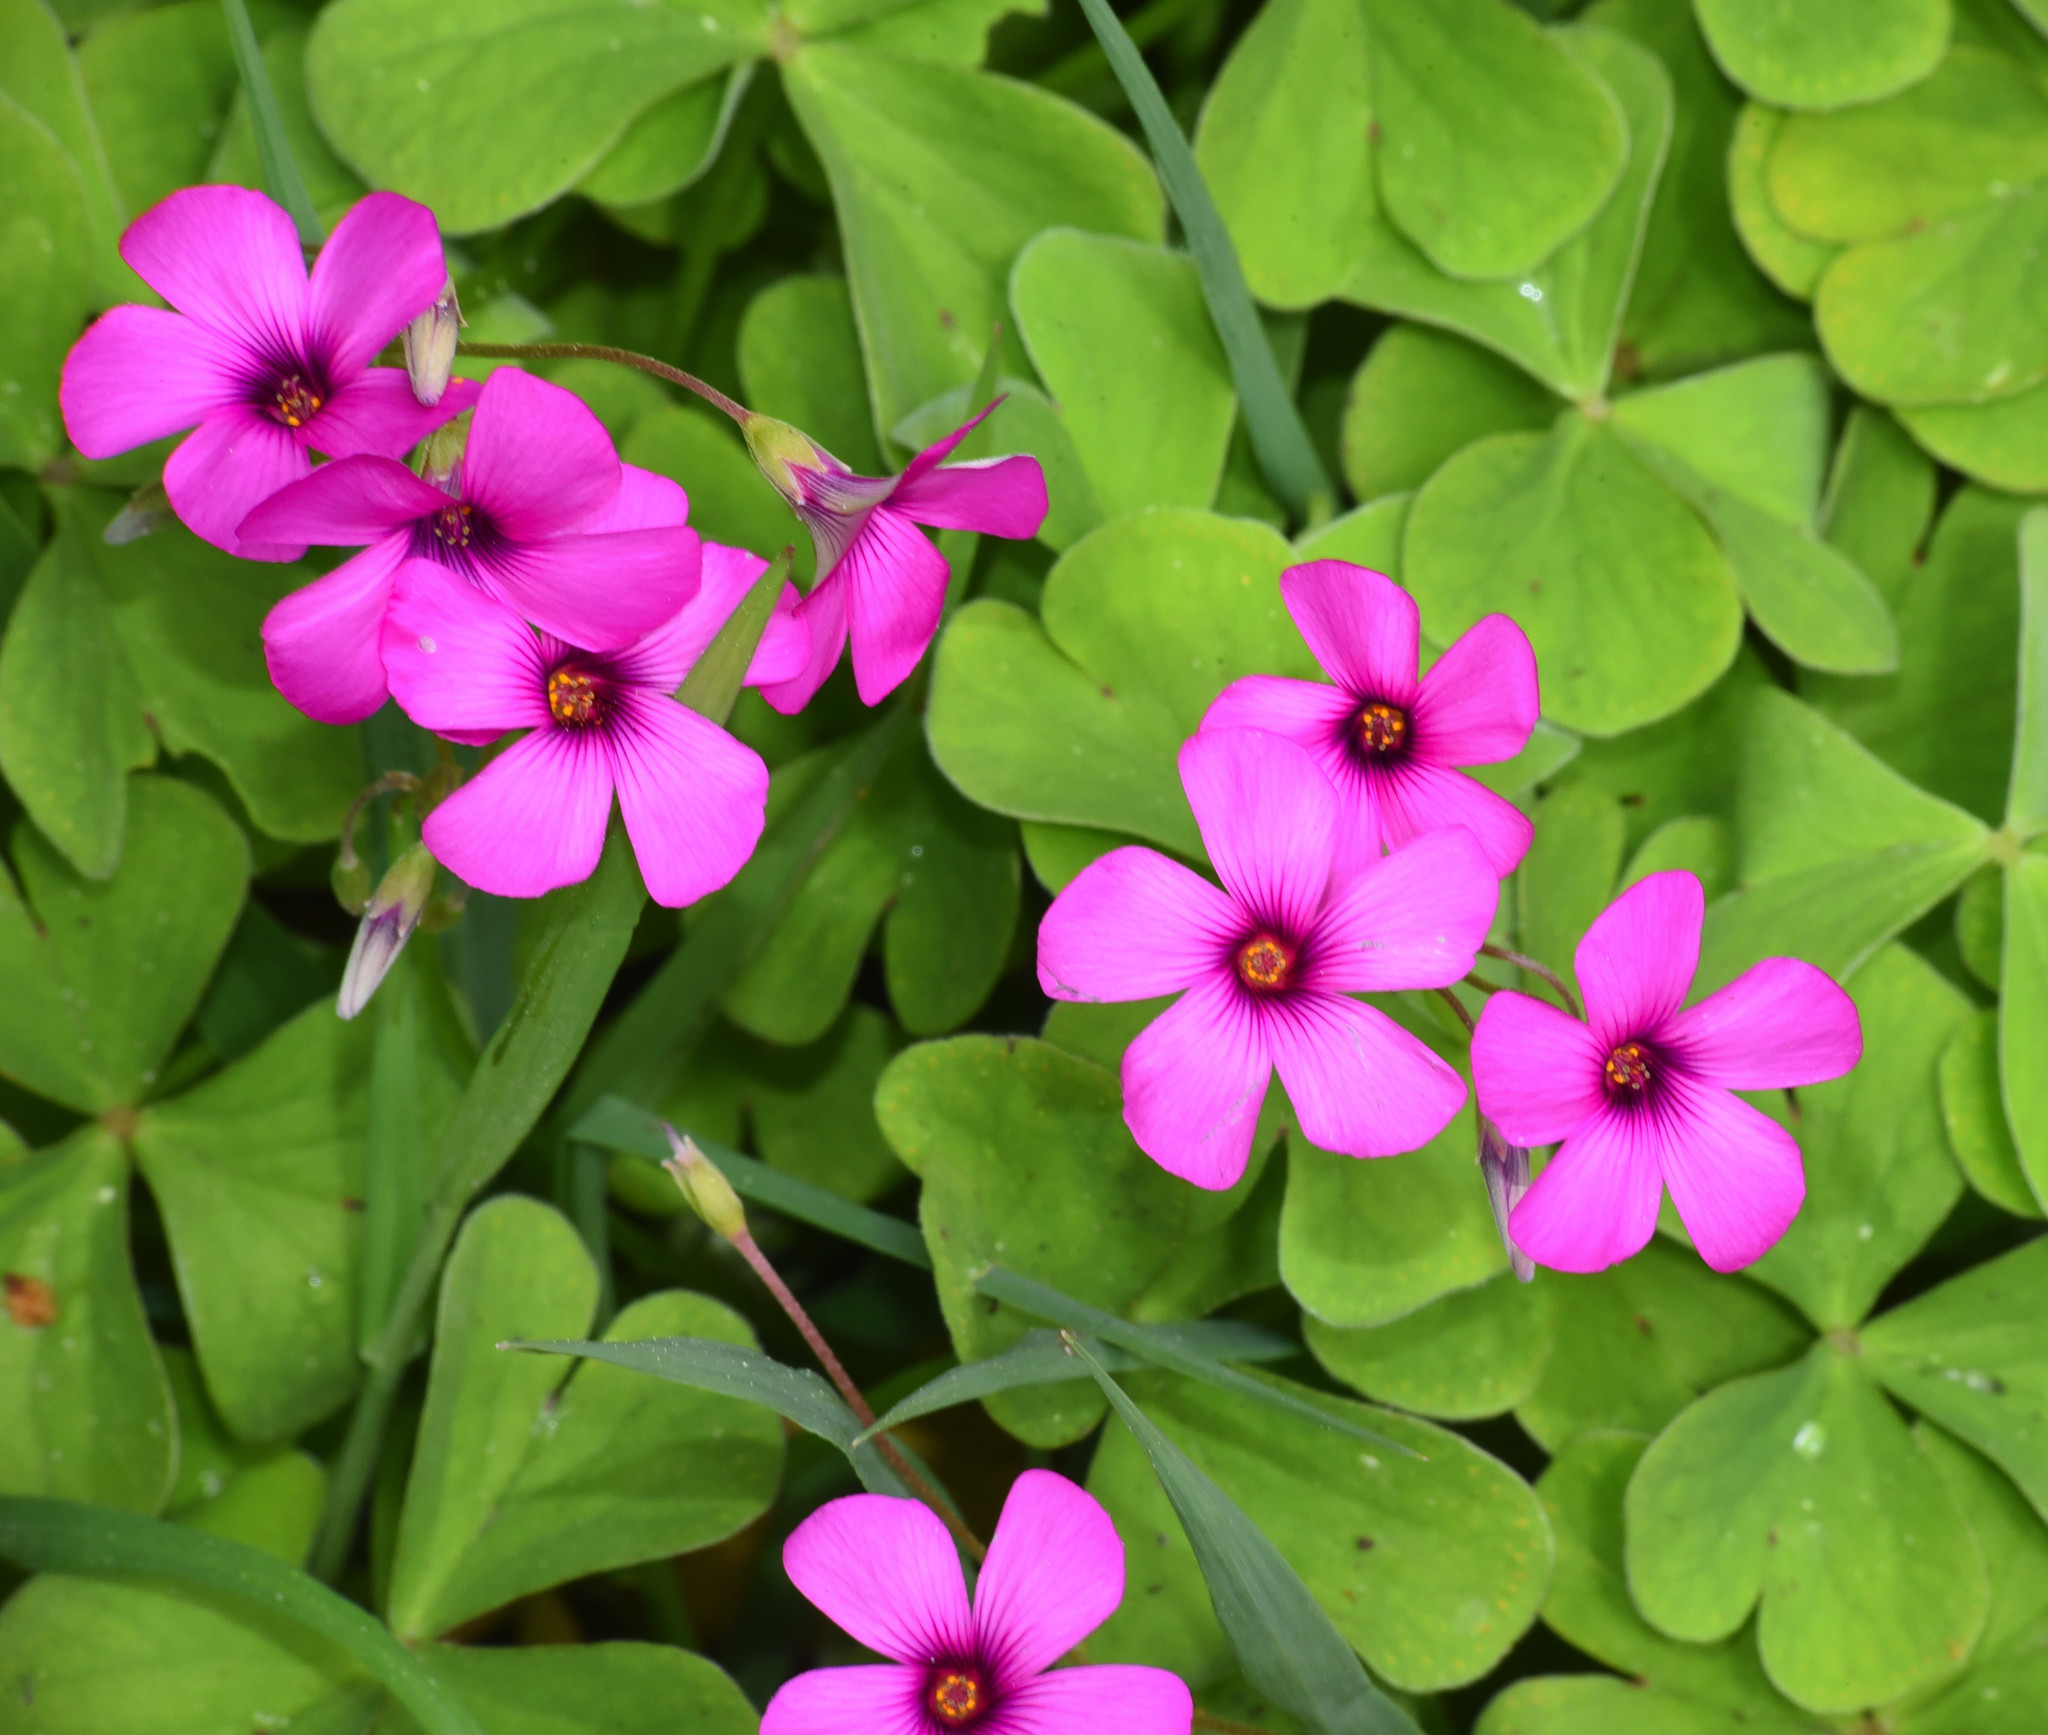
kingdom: Plantae
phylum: Tracheophyta
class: Magnoliopsida
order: Oxalidales
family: Oxalidaceae
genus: Oxalis
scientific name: Oxalis articulata
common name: Pink-sorrel
